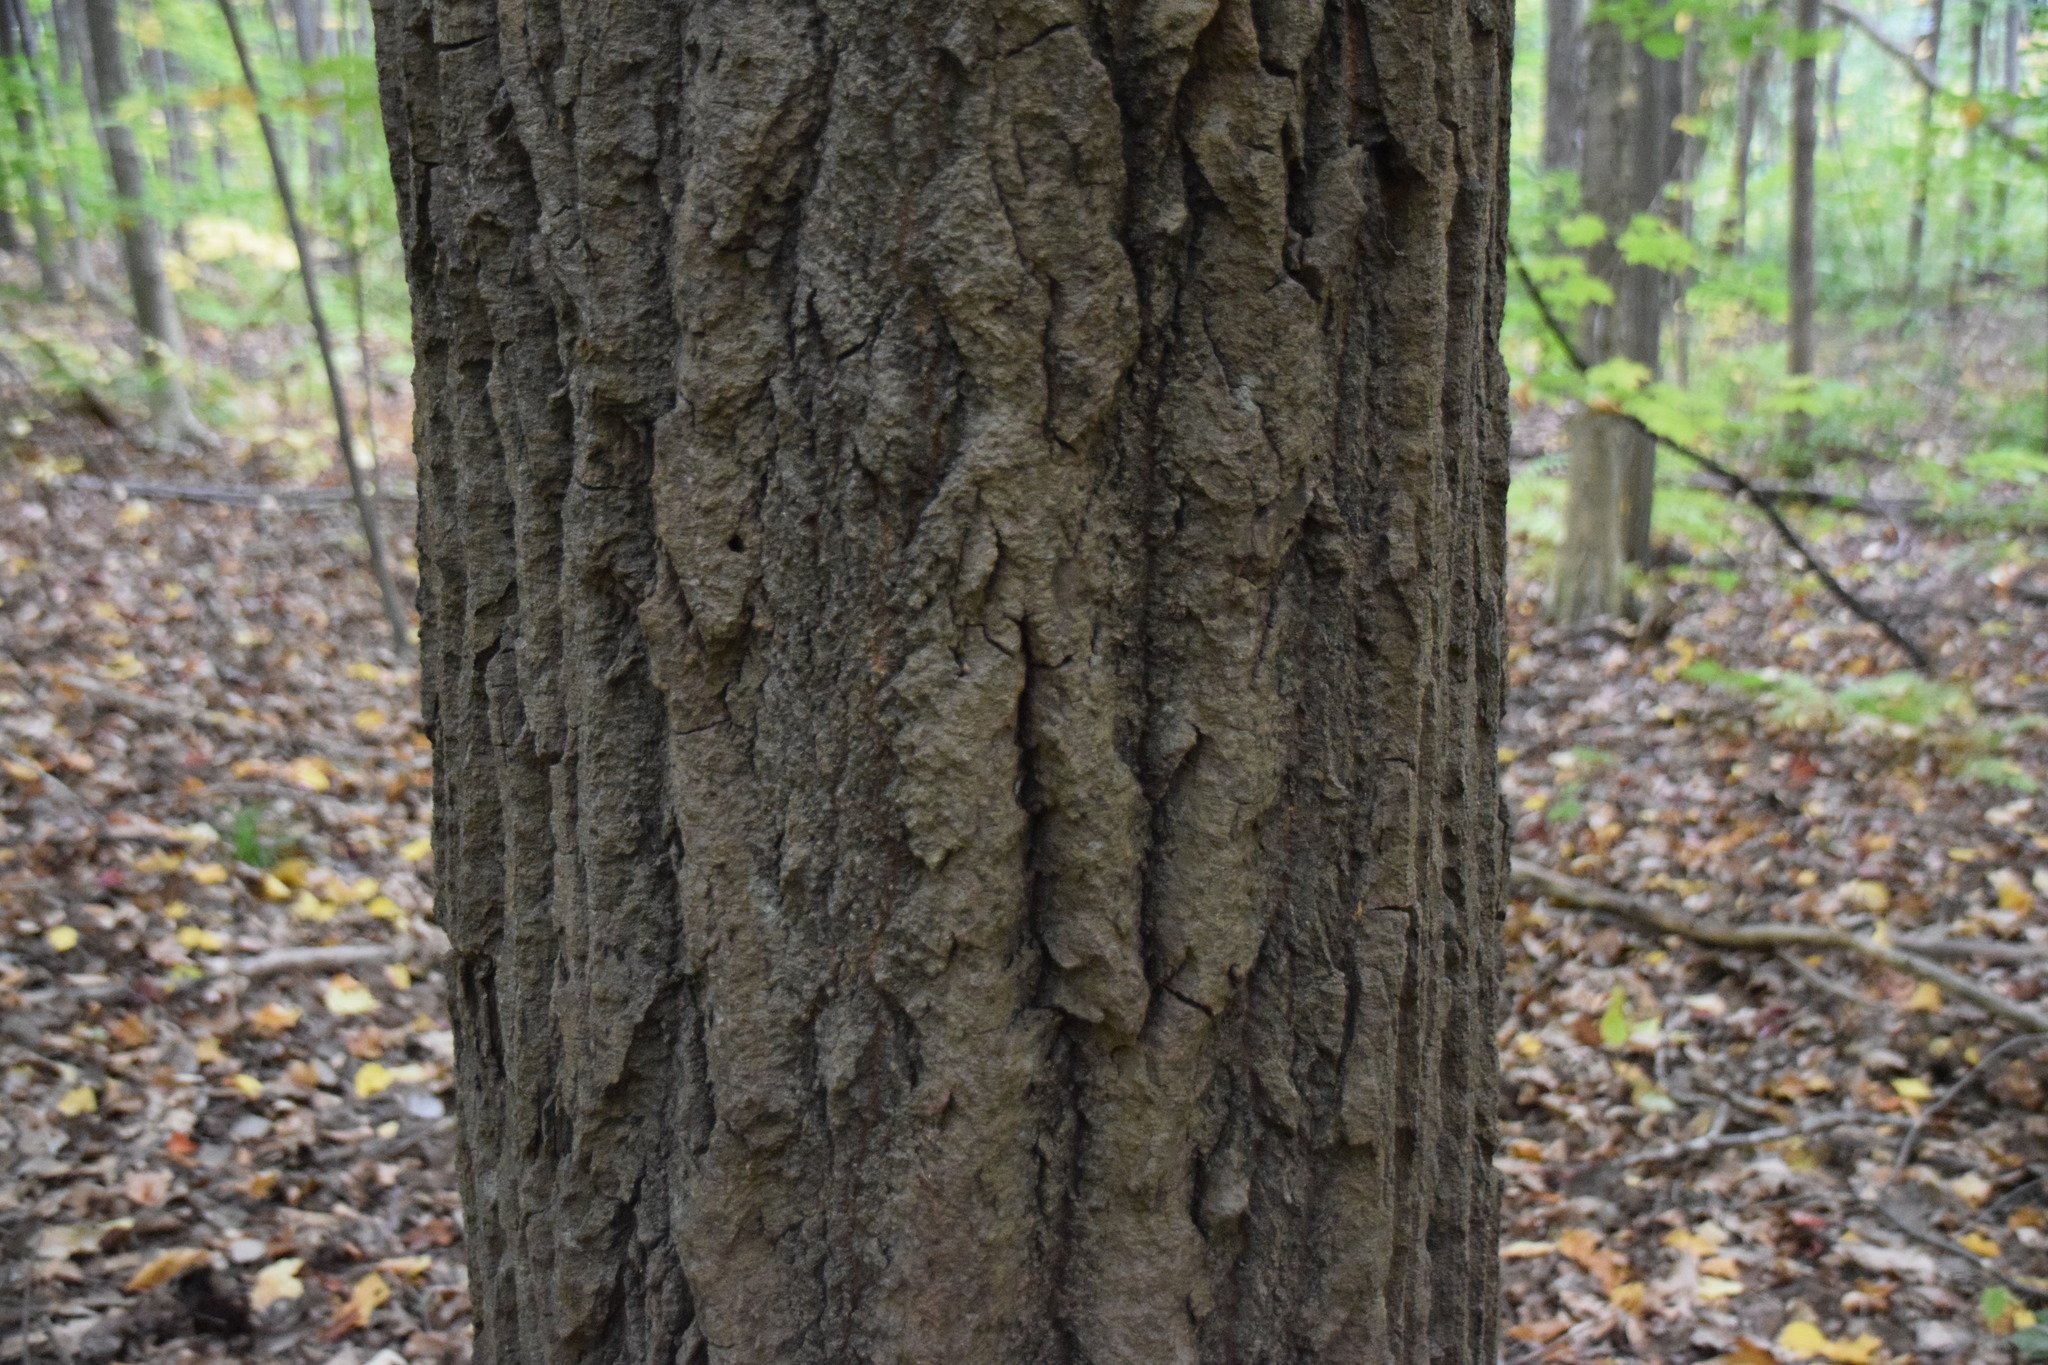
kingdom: Plantae
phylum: Tracheophyta
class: Magnoliopsida
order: Malpighiales
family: Salicaceae
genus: Populus
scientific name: Populus grandidentata
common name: Bigtooth aspen
